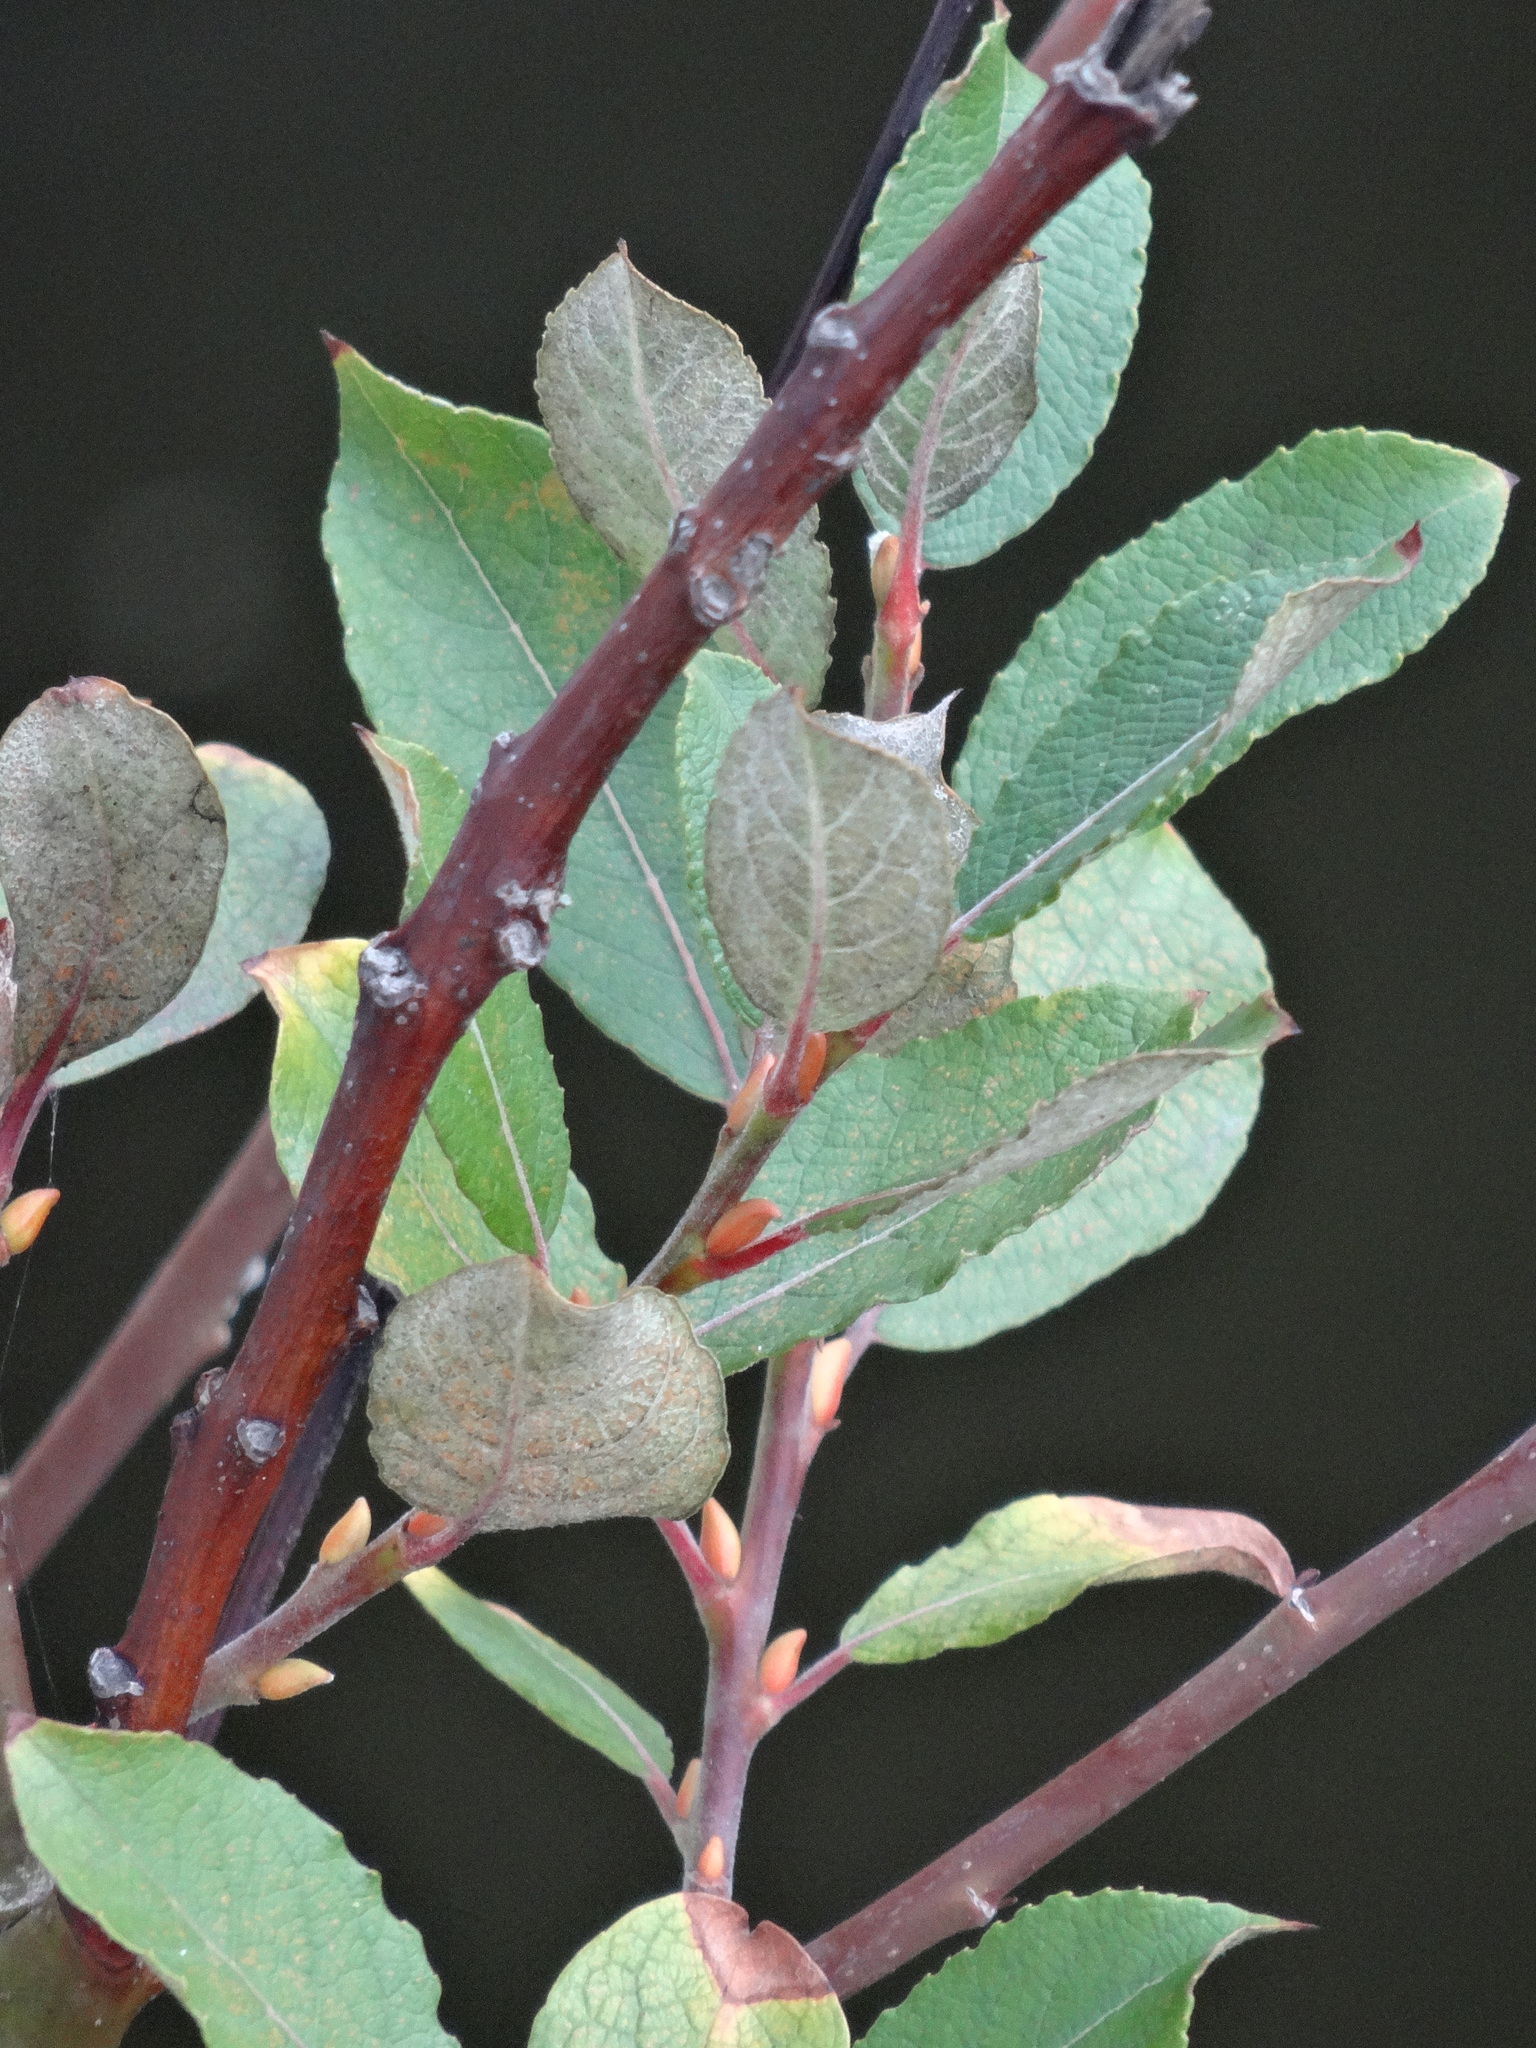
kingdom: Plantae
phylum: Tracheophyta
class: Magnoliopsida
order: Malpighiales
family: Salicaceae
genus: Salix
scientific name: Salix caprea
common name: Goat willow
